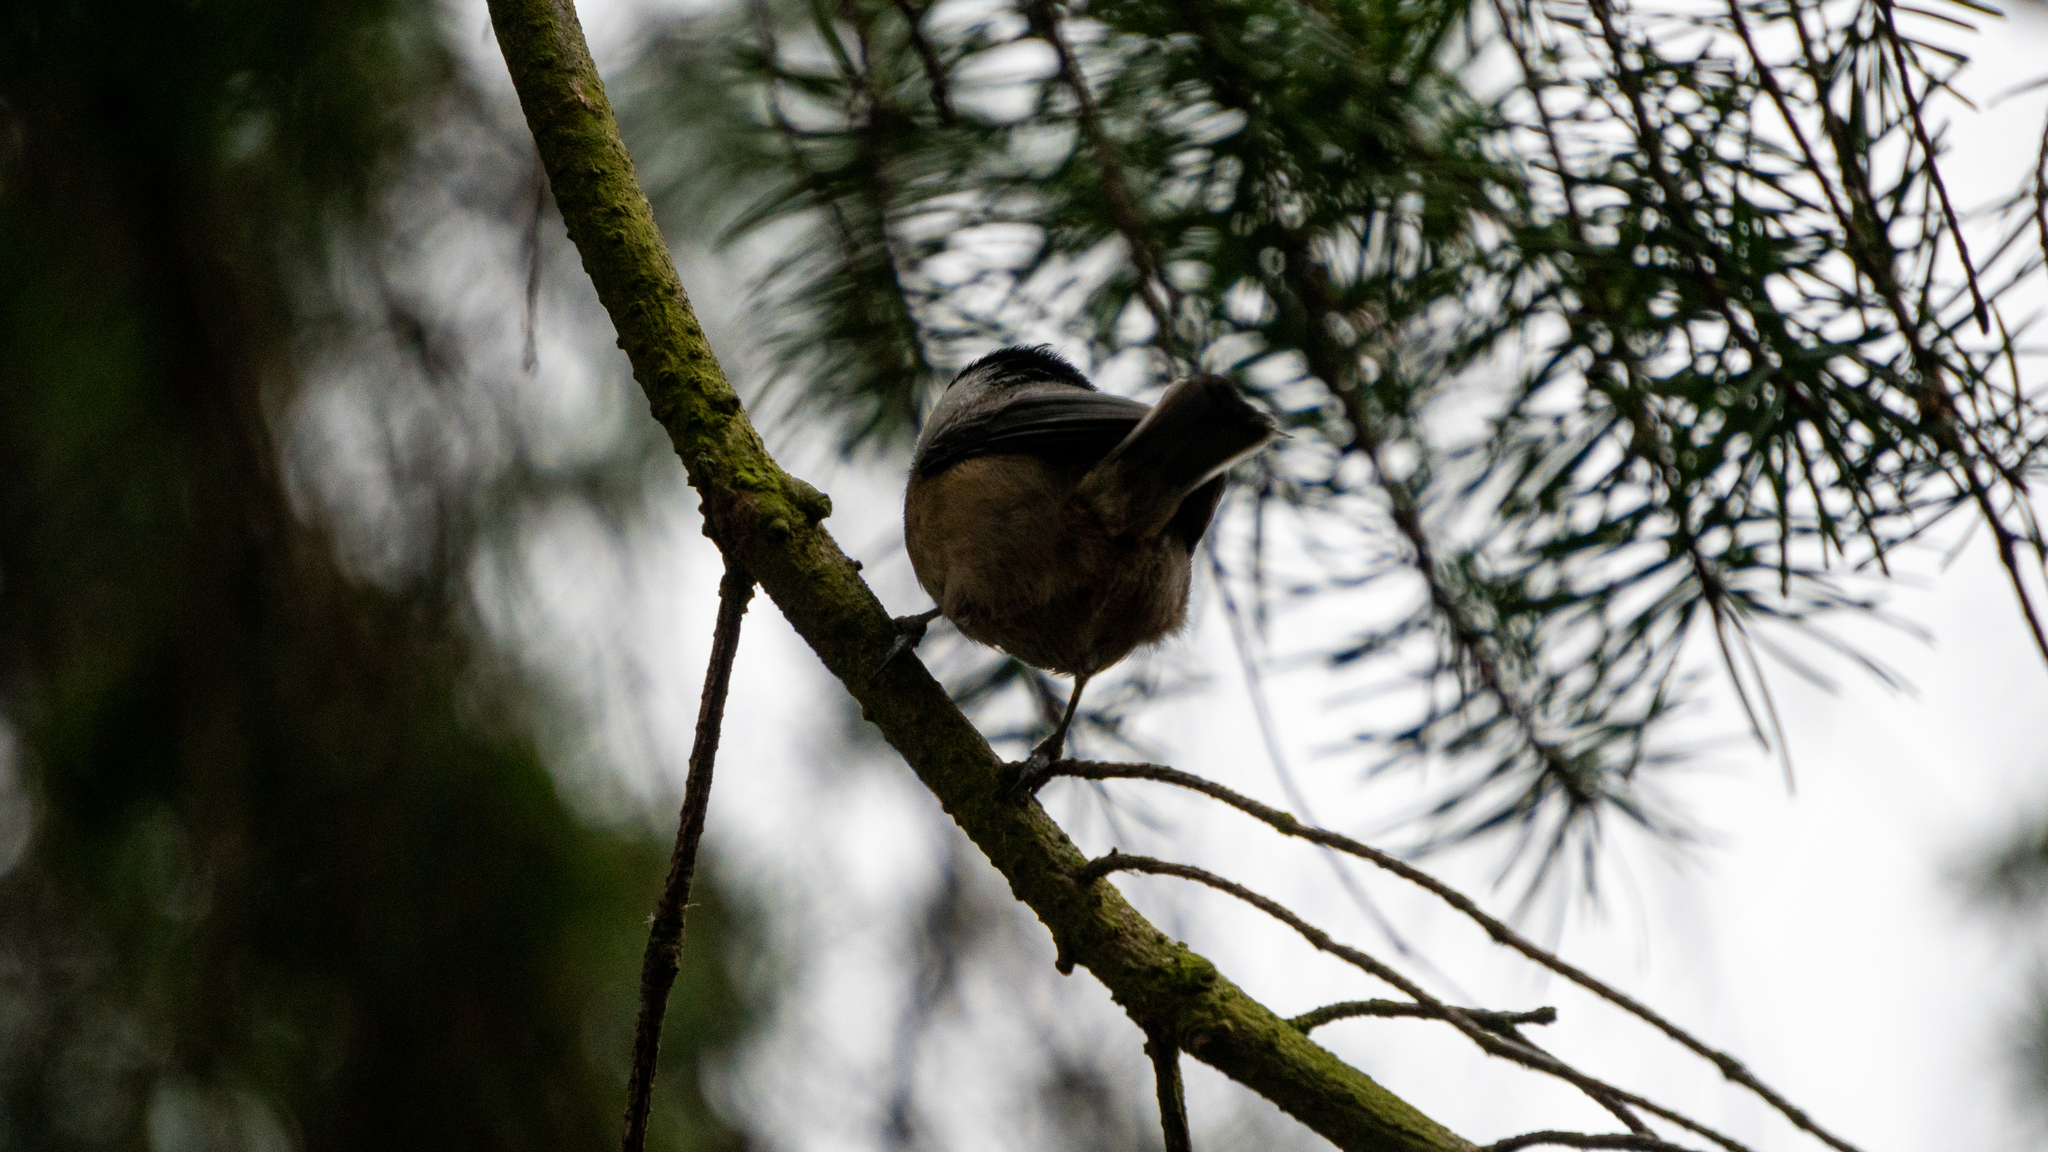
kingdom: Animalia
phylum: Chordata
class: Aves
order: Passeriformes
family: Paridae
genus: Poecile
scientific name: Poecile atricapillus
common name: Black-capped chickadee
